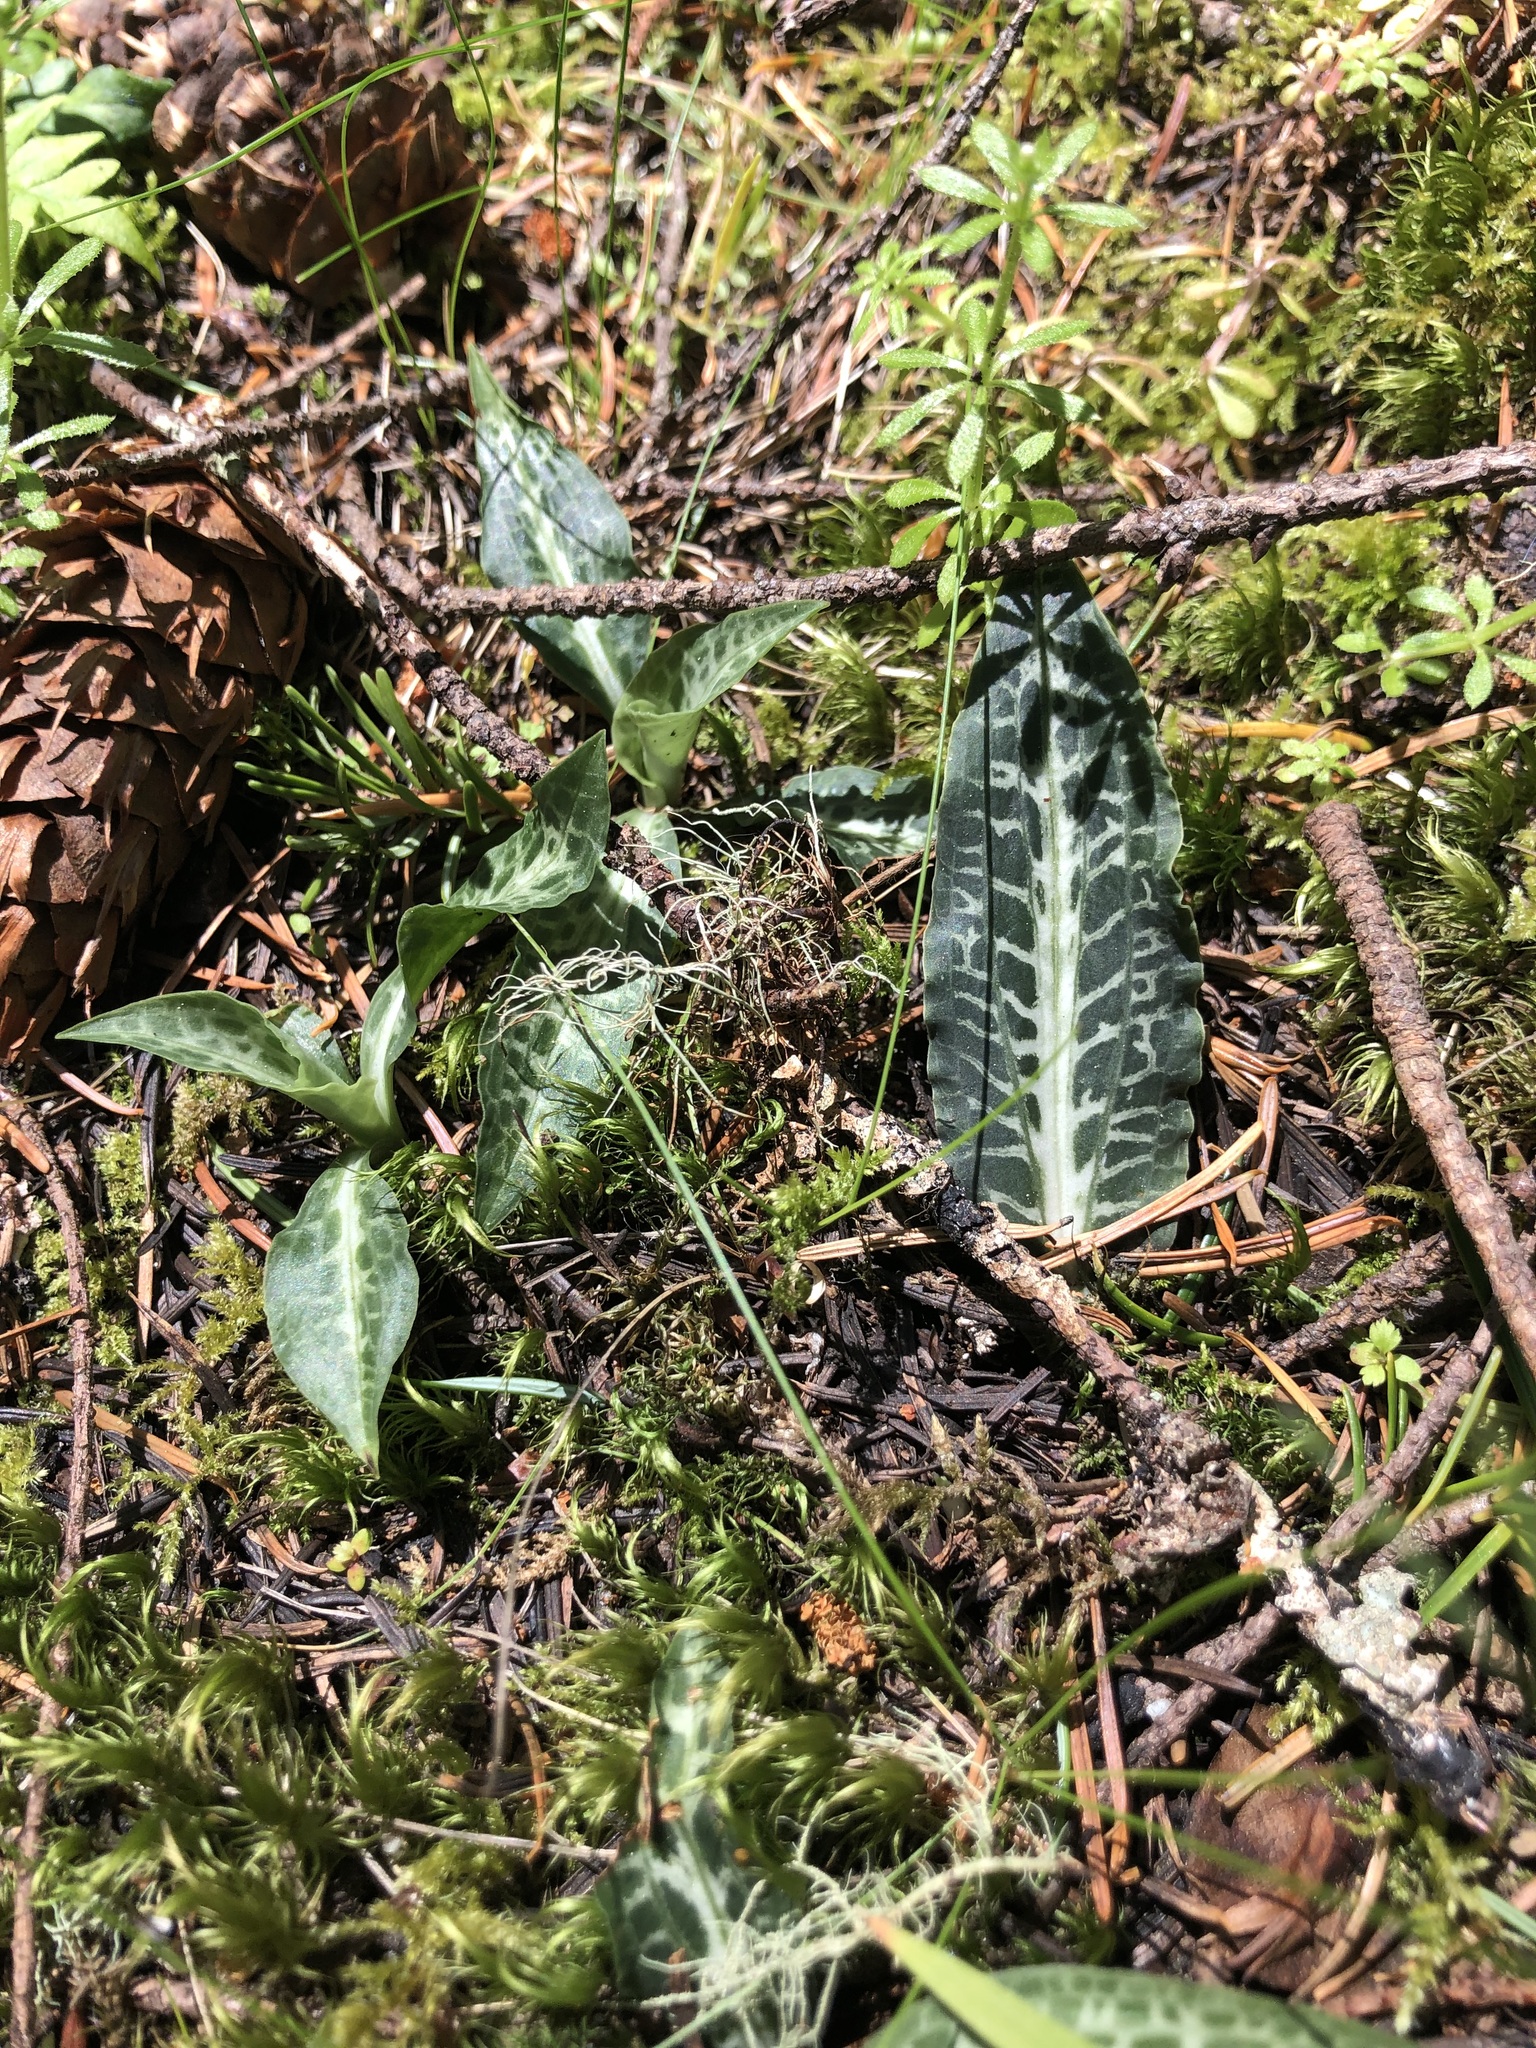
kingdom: Plantae
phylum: Tracheophyta
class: Liliopsida
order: Asparagales
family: Orchidaceae
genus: Goodyera
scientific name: Goodyera oblongifolia
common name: Giant rattlesnake-plantain
